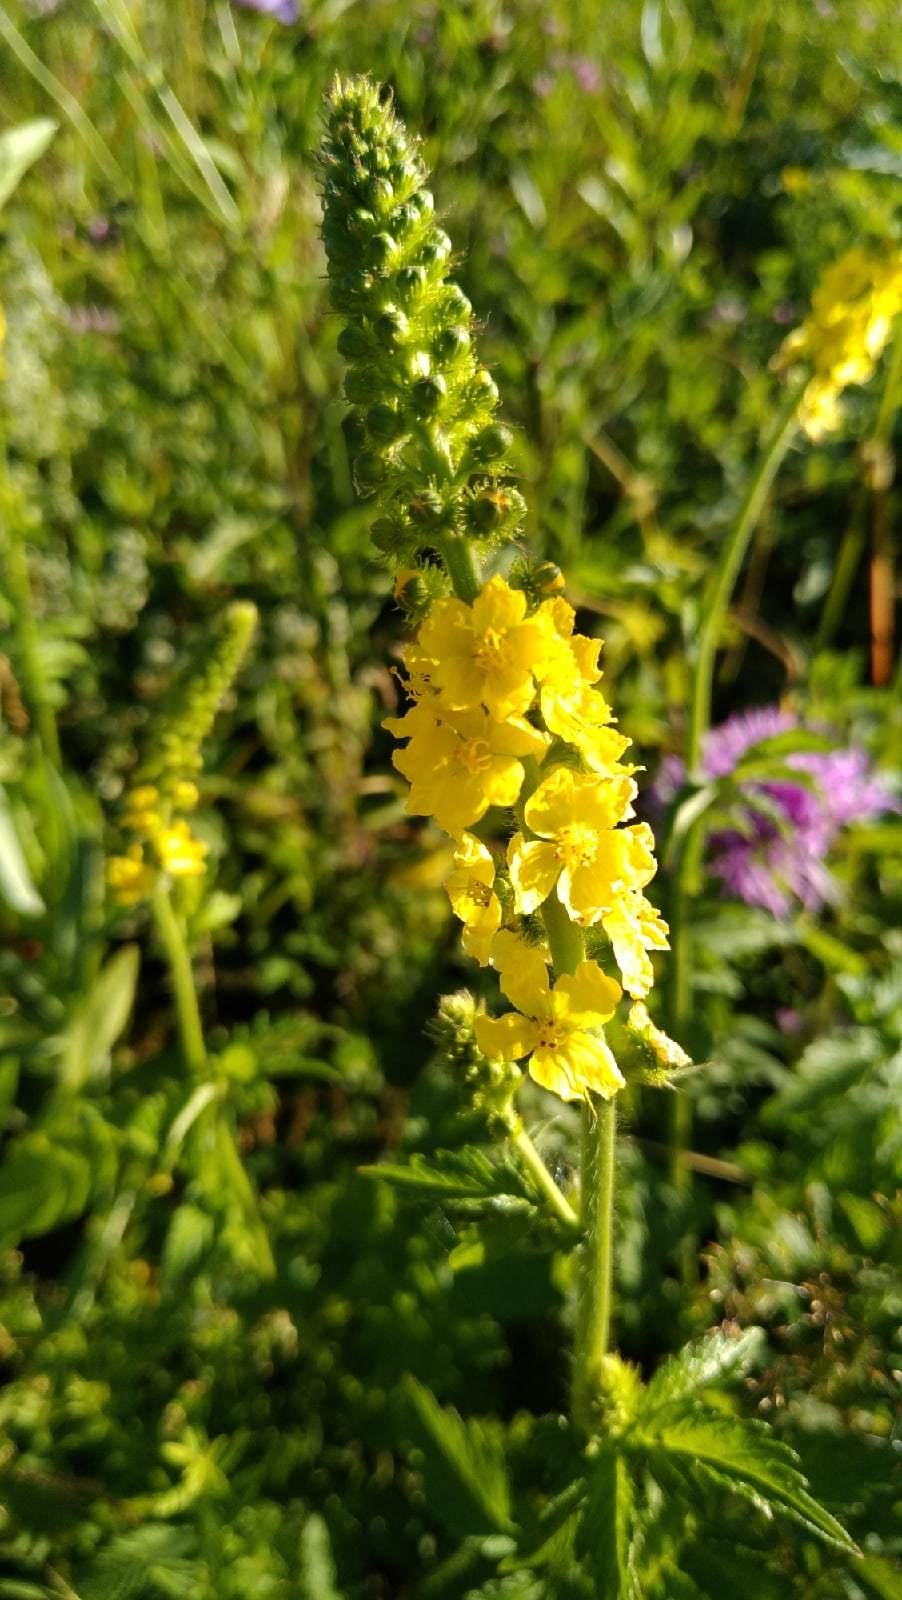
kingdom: Plantae
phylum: Tracheophyta
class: Magnoliopsida
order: Rosales
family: Rosaceae
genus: Agrimonia
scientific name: Agrimonia eupatoria
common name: Agrimony
